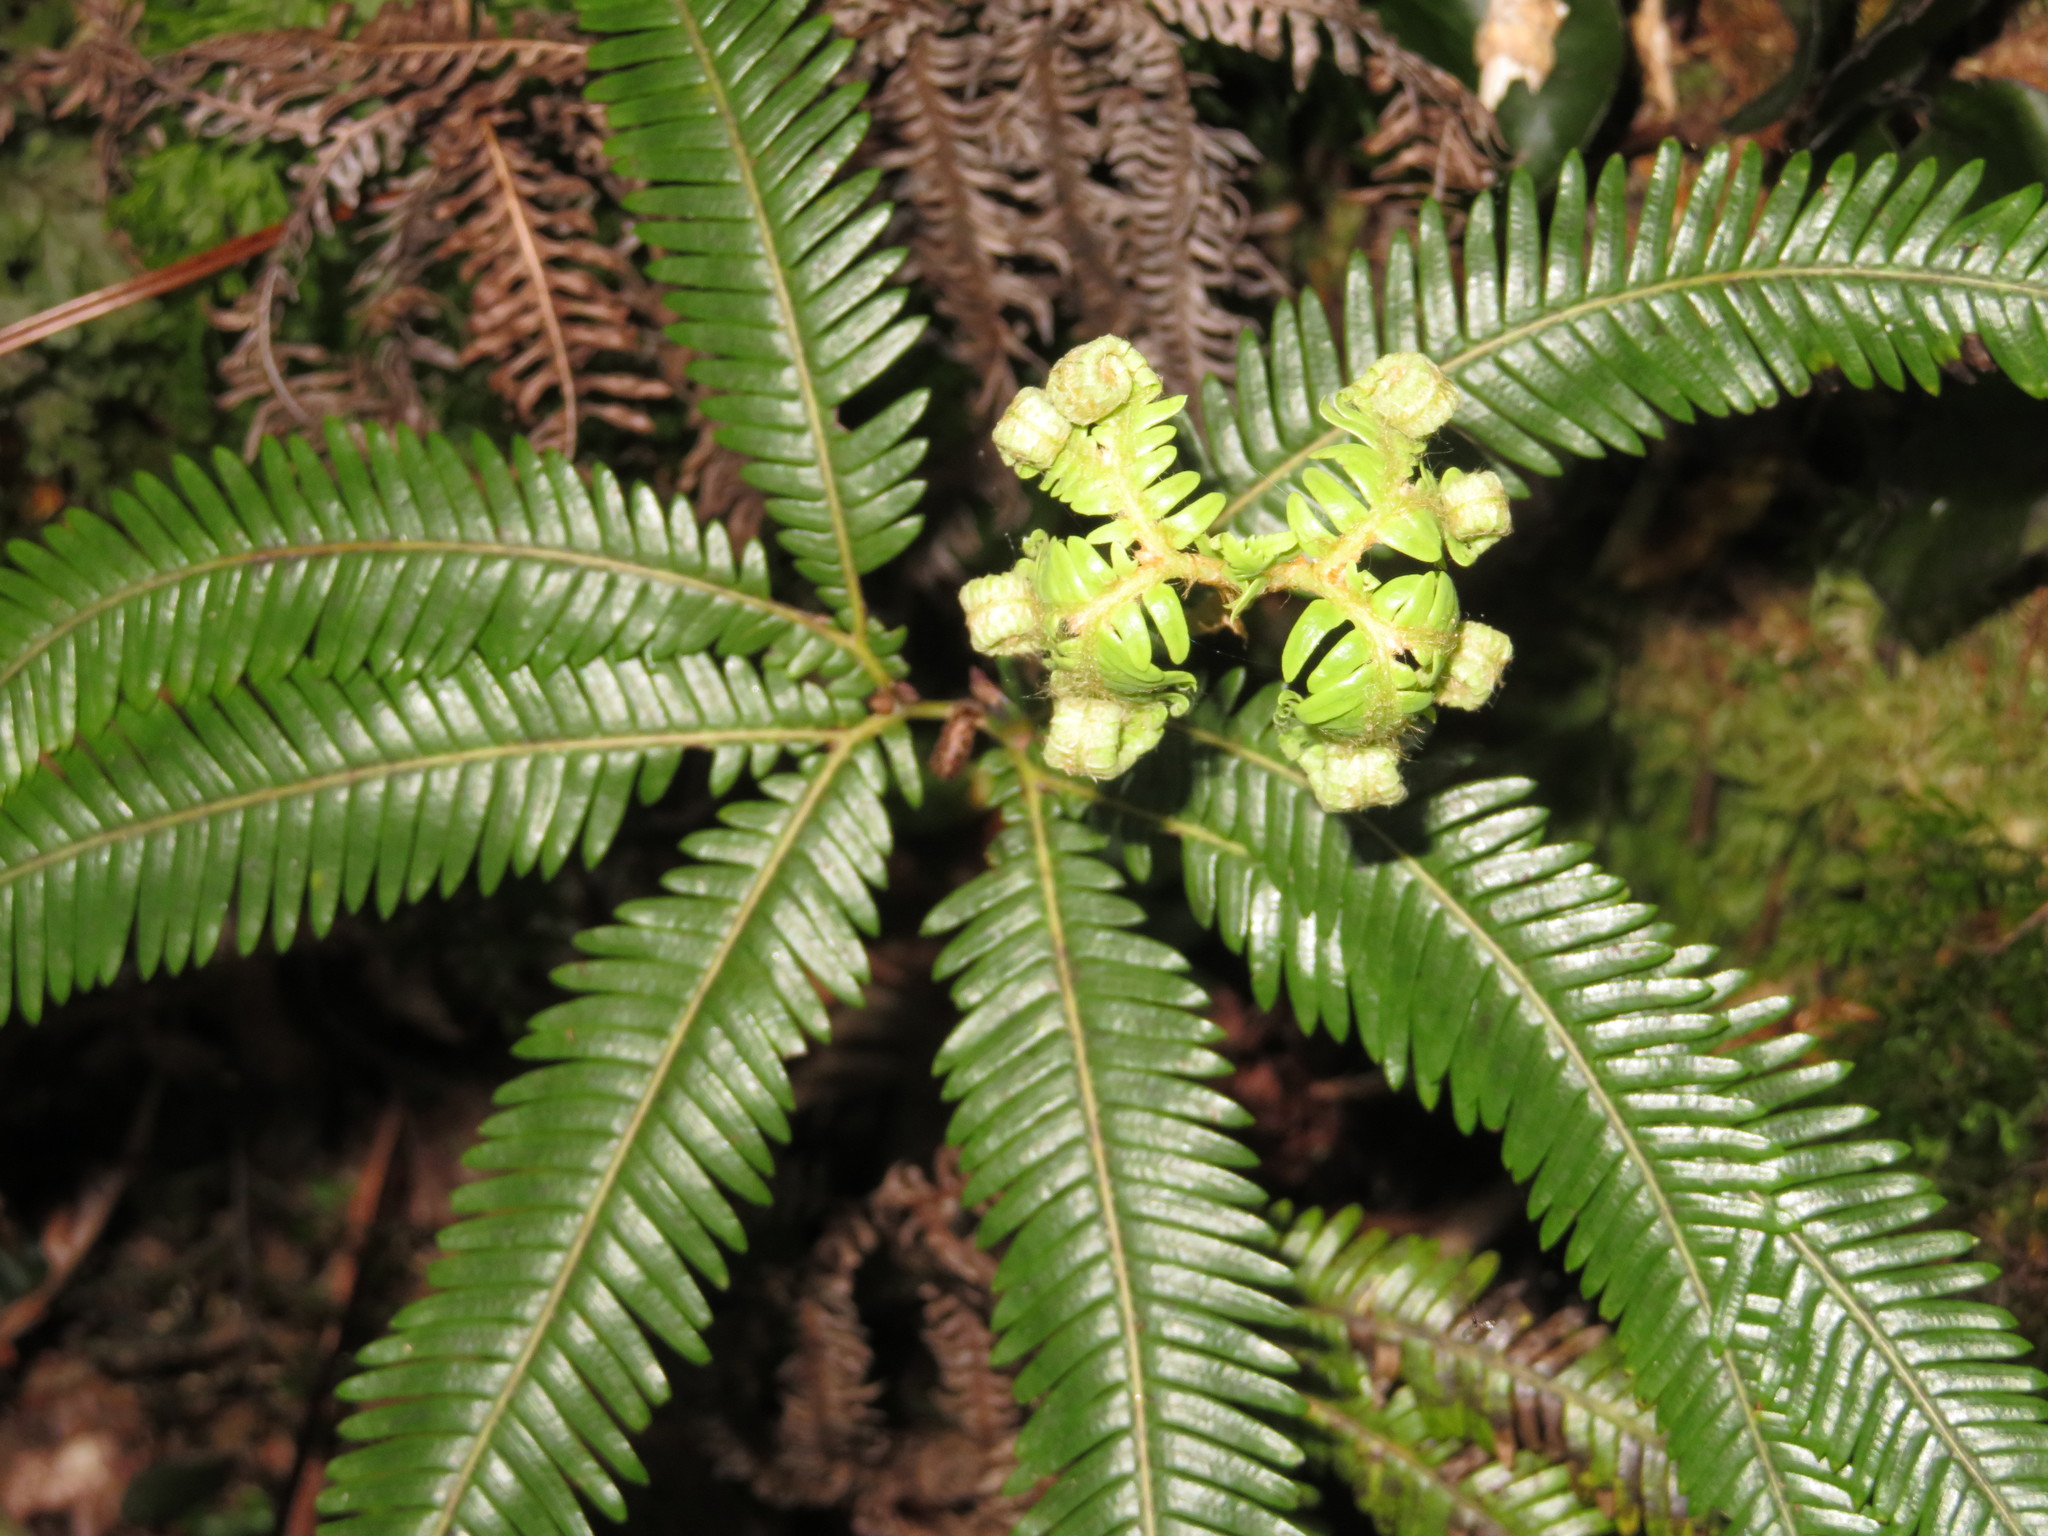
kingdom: Plantae
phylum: Tracheophyta
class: Polypodiopsida
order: Gleicheniales
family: Gleicheniaceae
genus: Sticherus
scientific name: Sticherus cunninghamii
